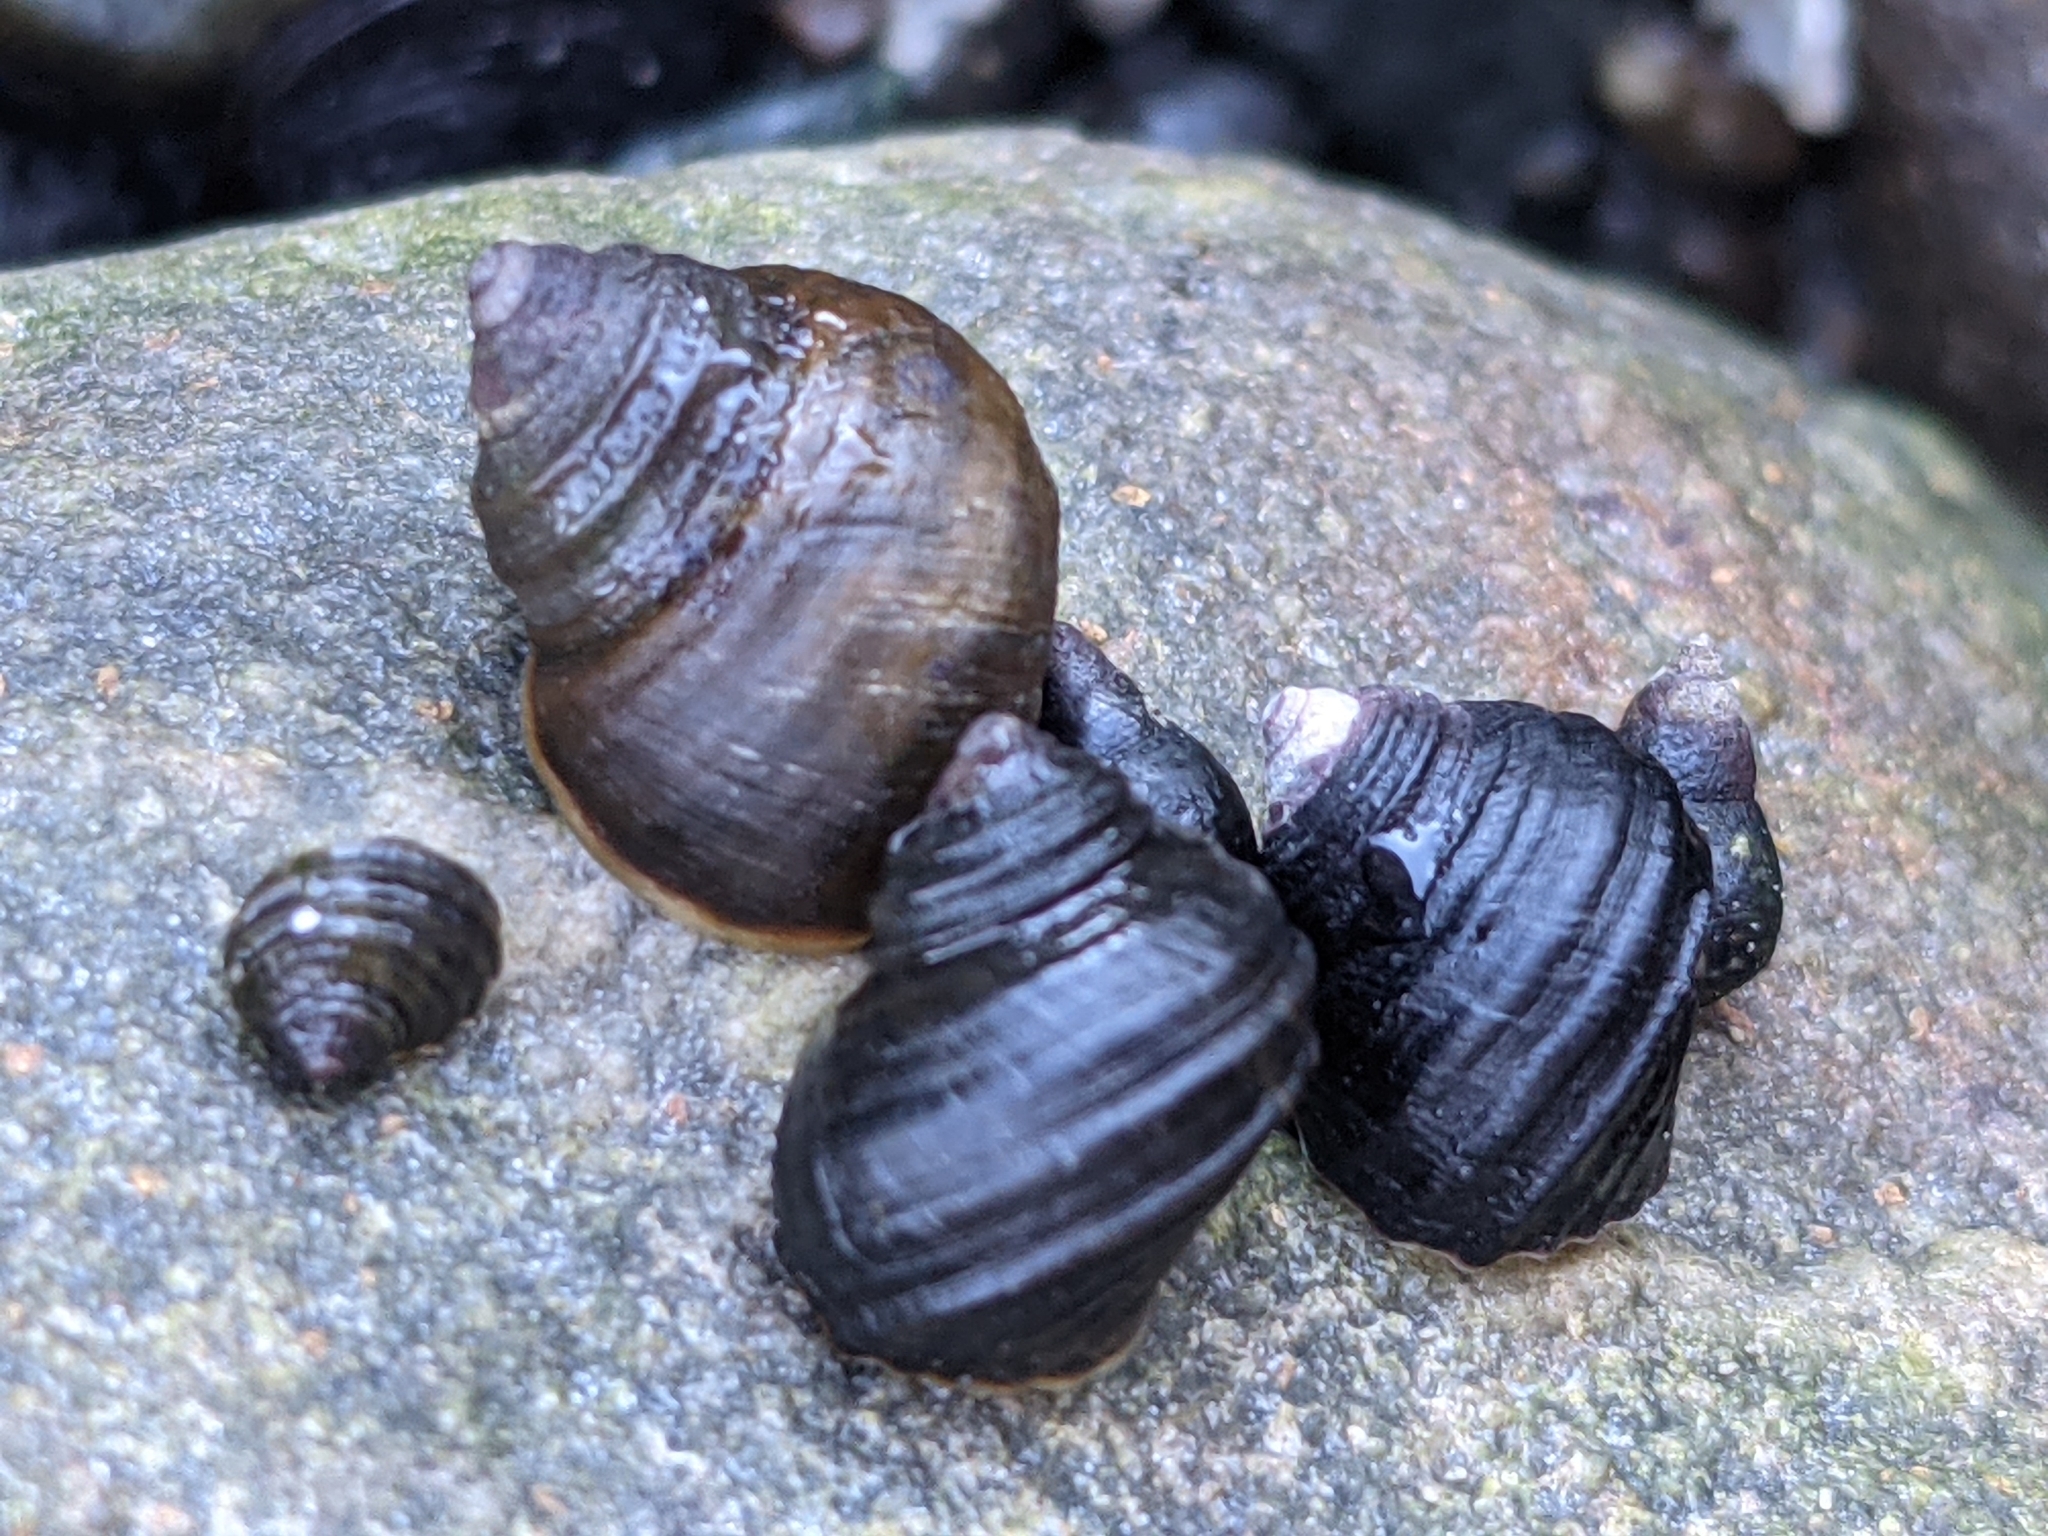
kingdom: Animalia
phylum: Mollusca
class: Gastropoda
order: Littorinimorpha
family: Littorinidae
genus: Littorina
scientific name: Littorina sitkana
